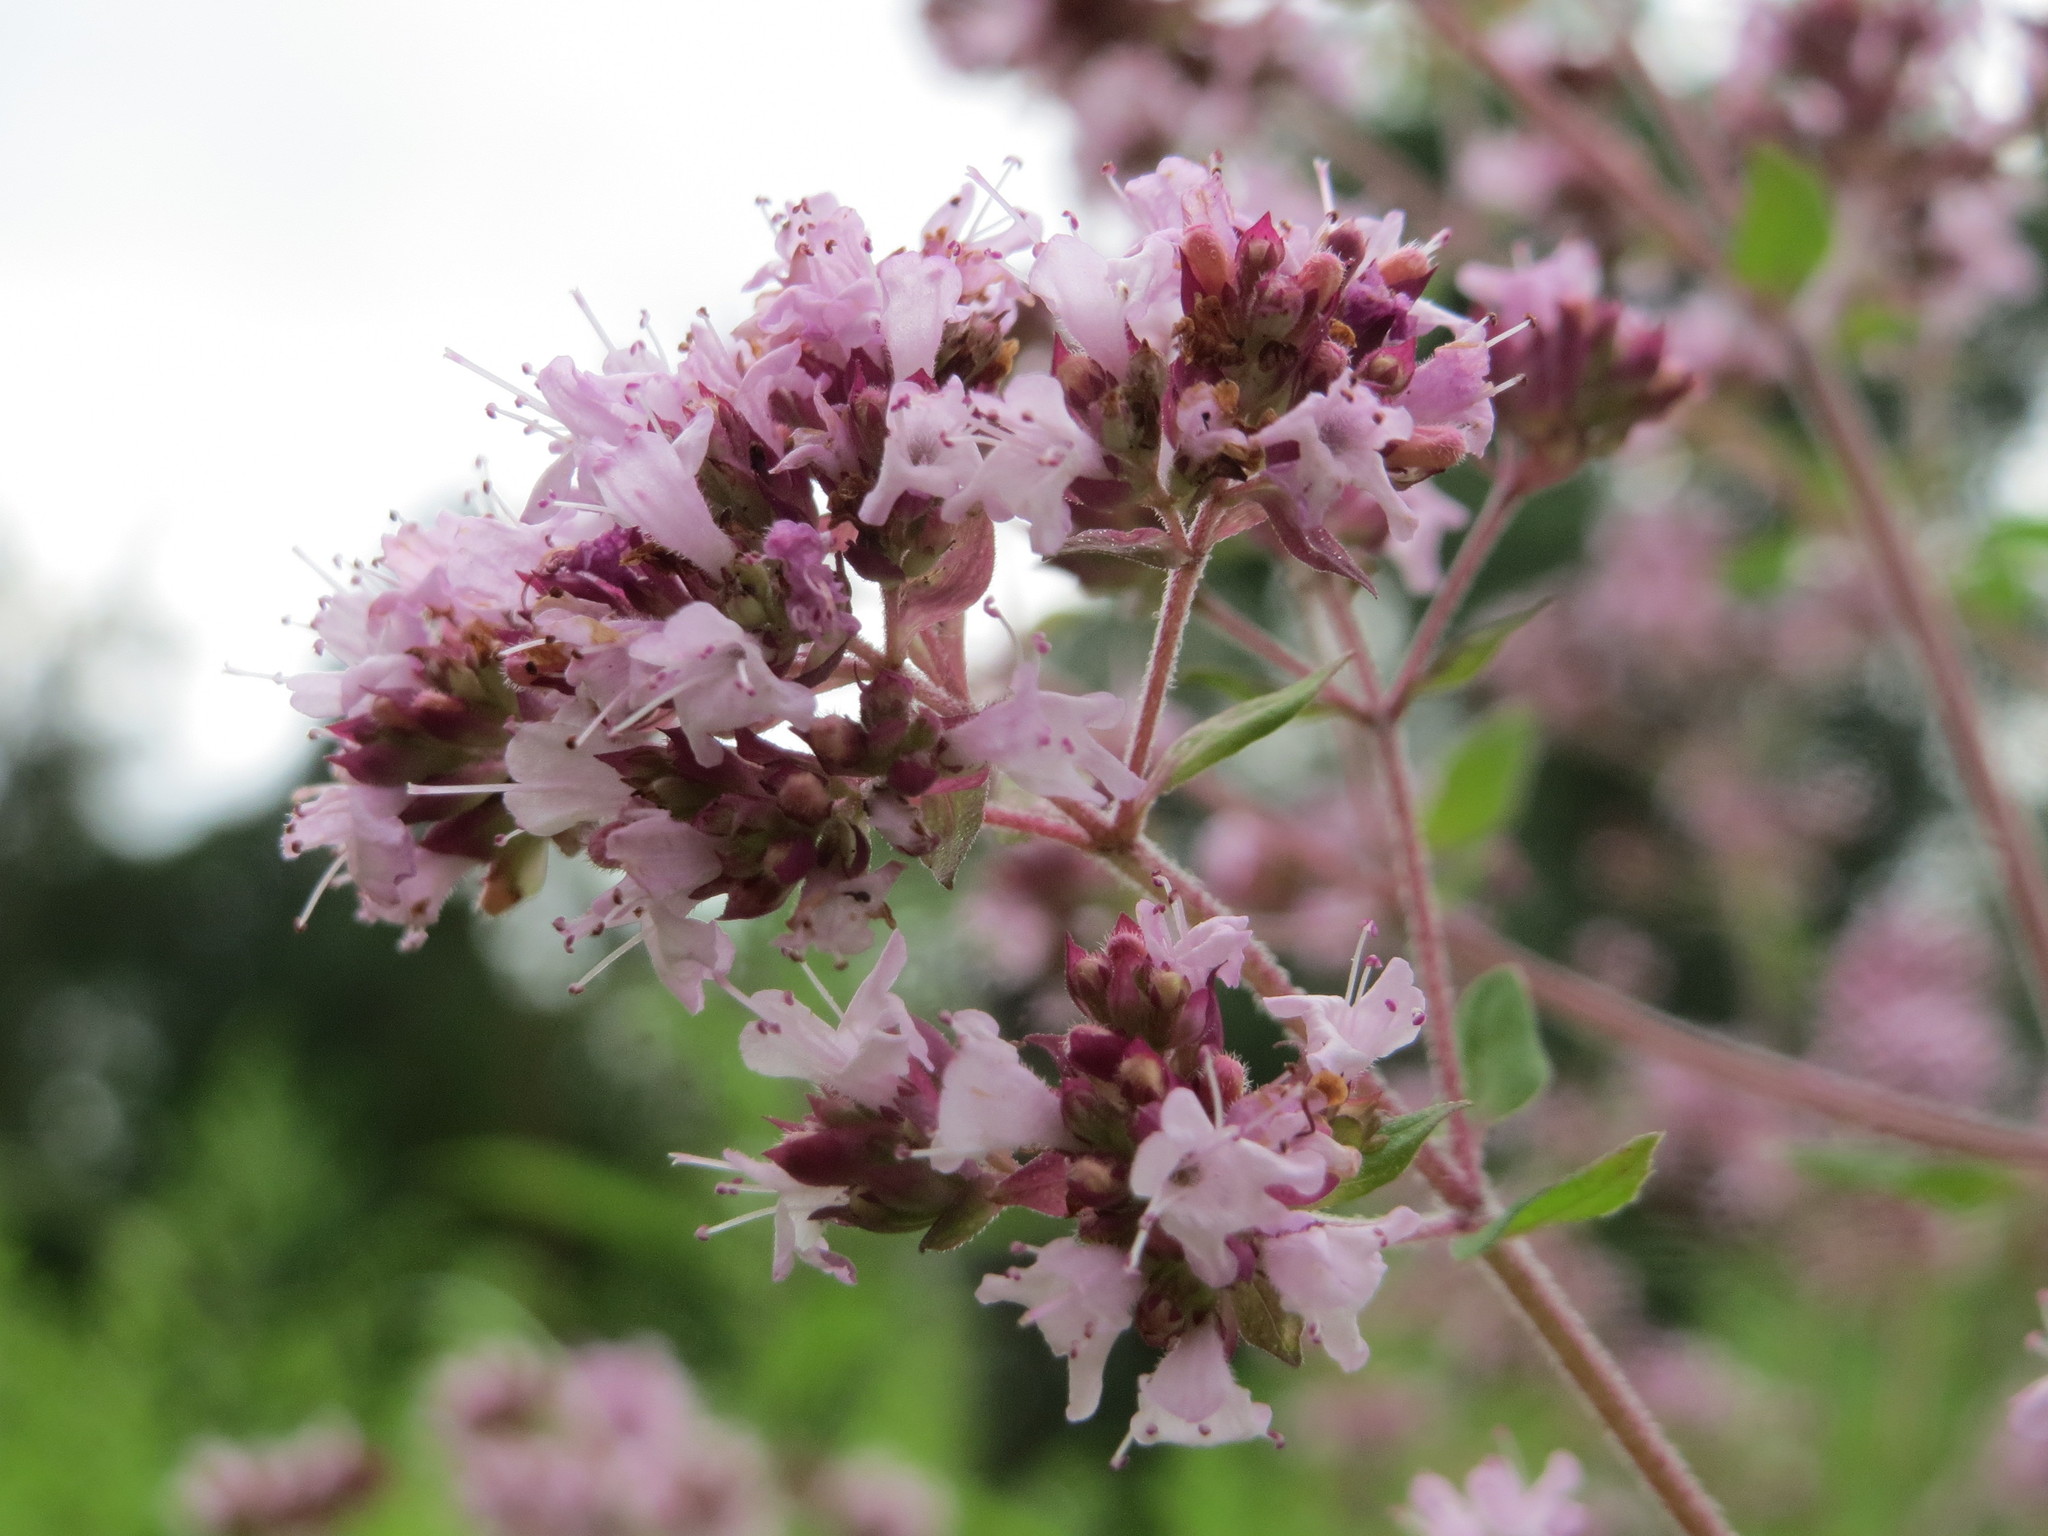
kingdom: Plantae
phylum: Tracheophyta
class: Magnoliopsida
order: Lamiales
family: Lamiaceae
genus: Origanum
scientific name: Origanum vulgare
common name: Wild marjoram
